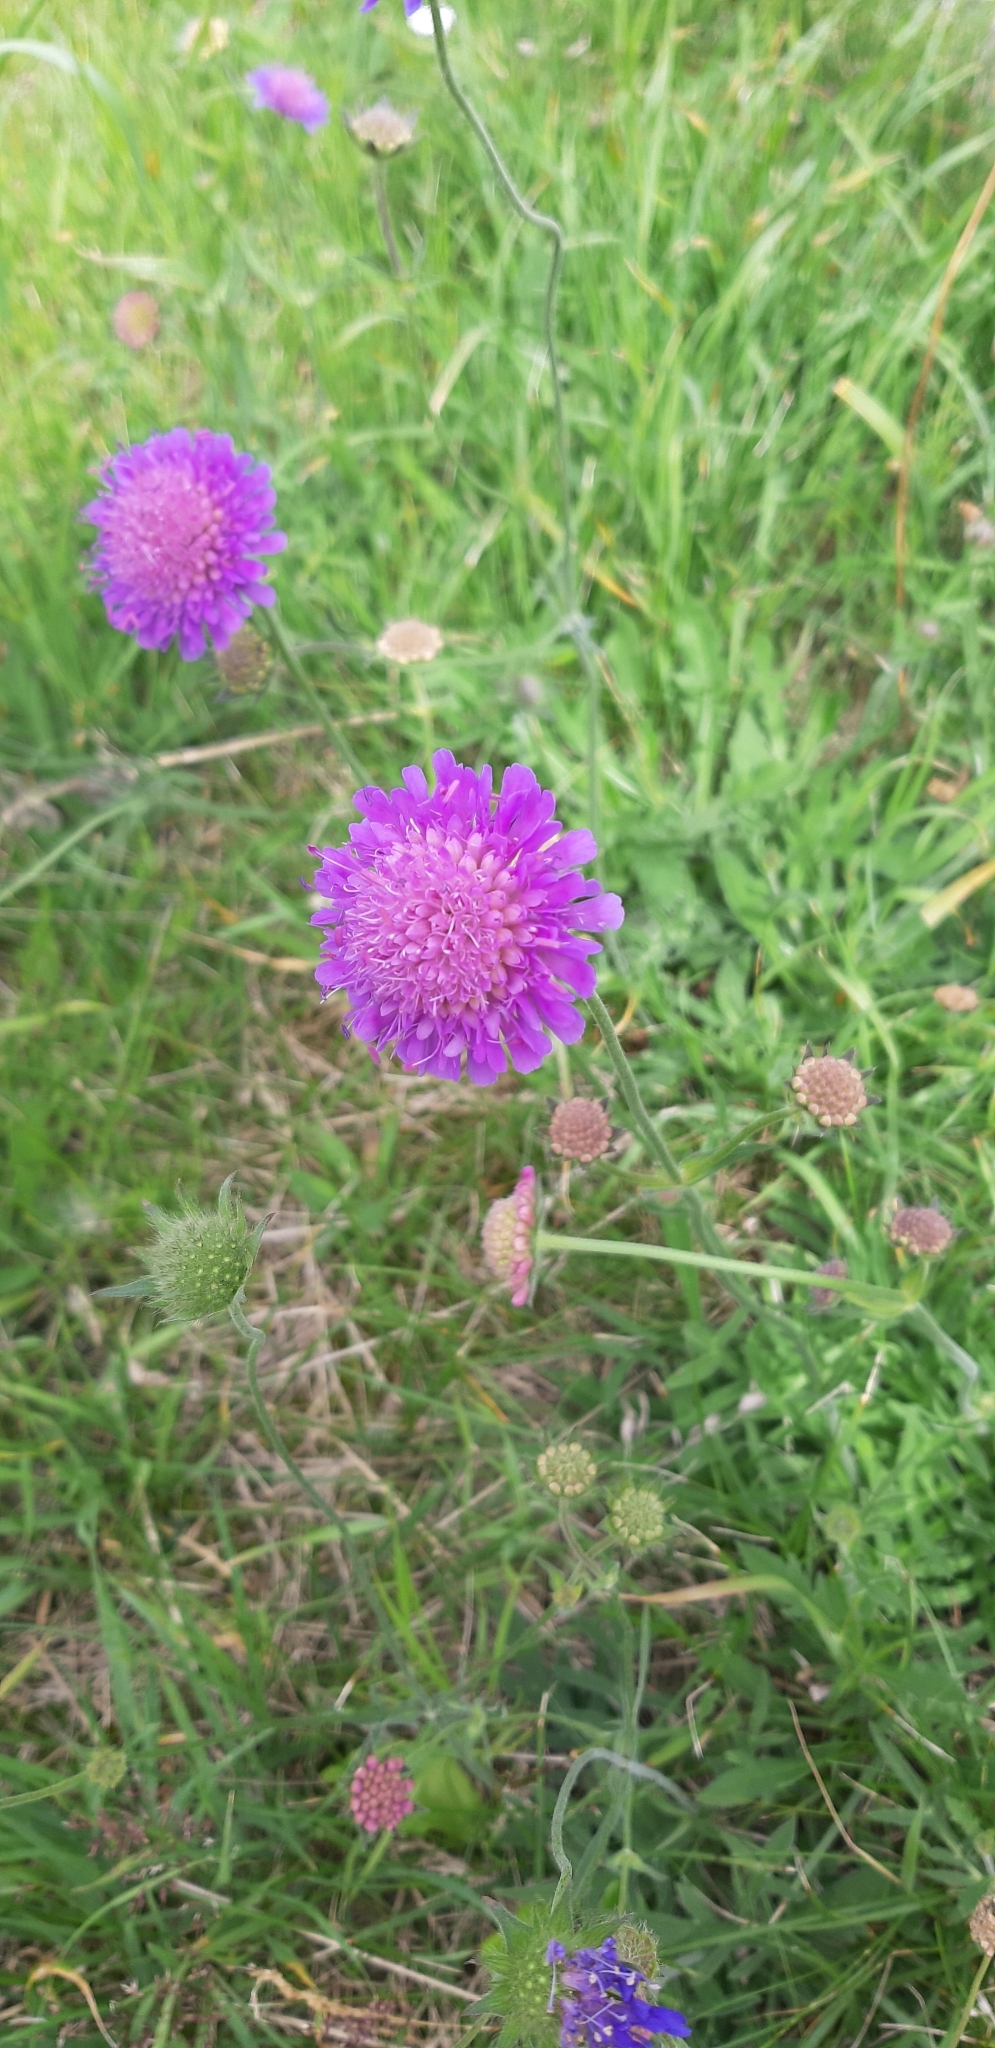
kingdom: Plantae
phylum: Tracheophyta
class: Magnoliopsida
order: Dipsacales
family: Caprifoliaceae
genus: Knautia
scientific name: Knautia arvensis
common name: Field scabiosa
